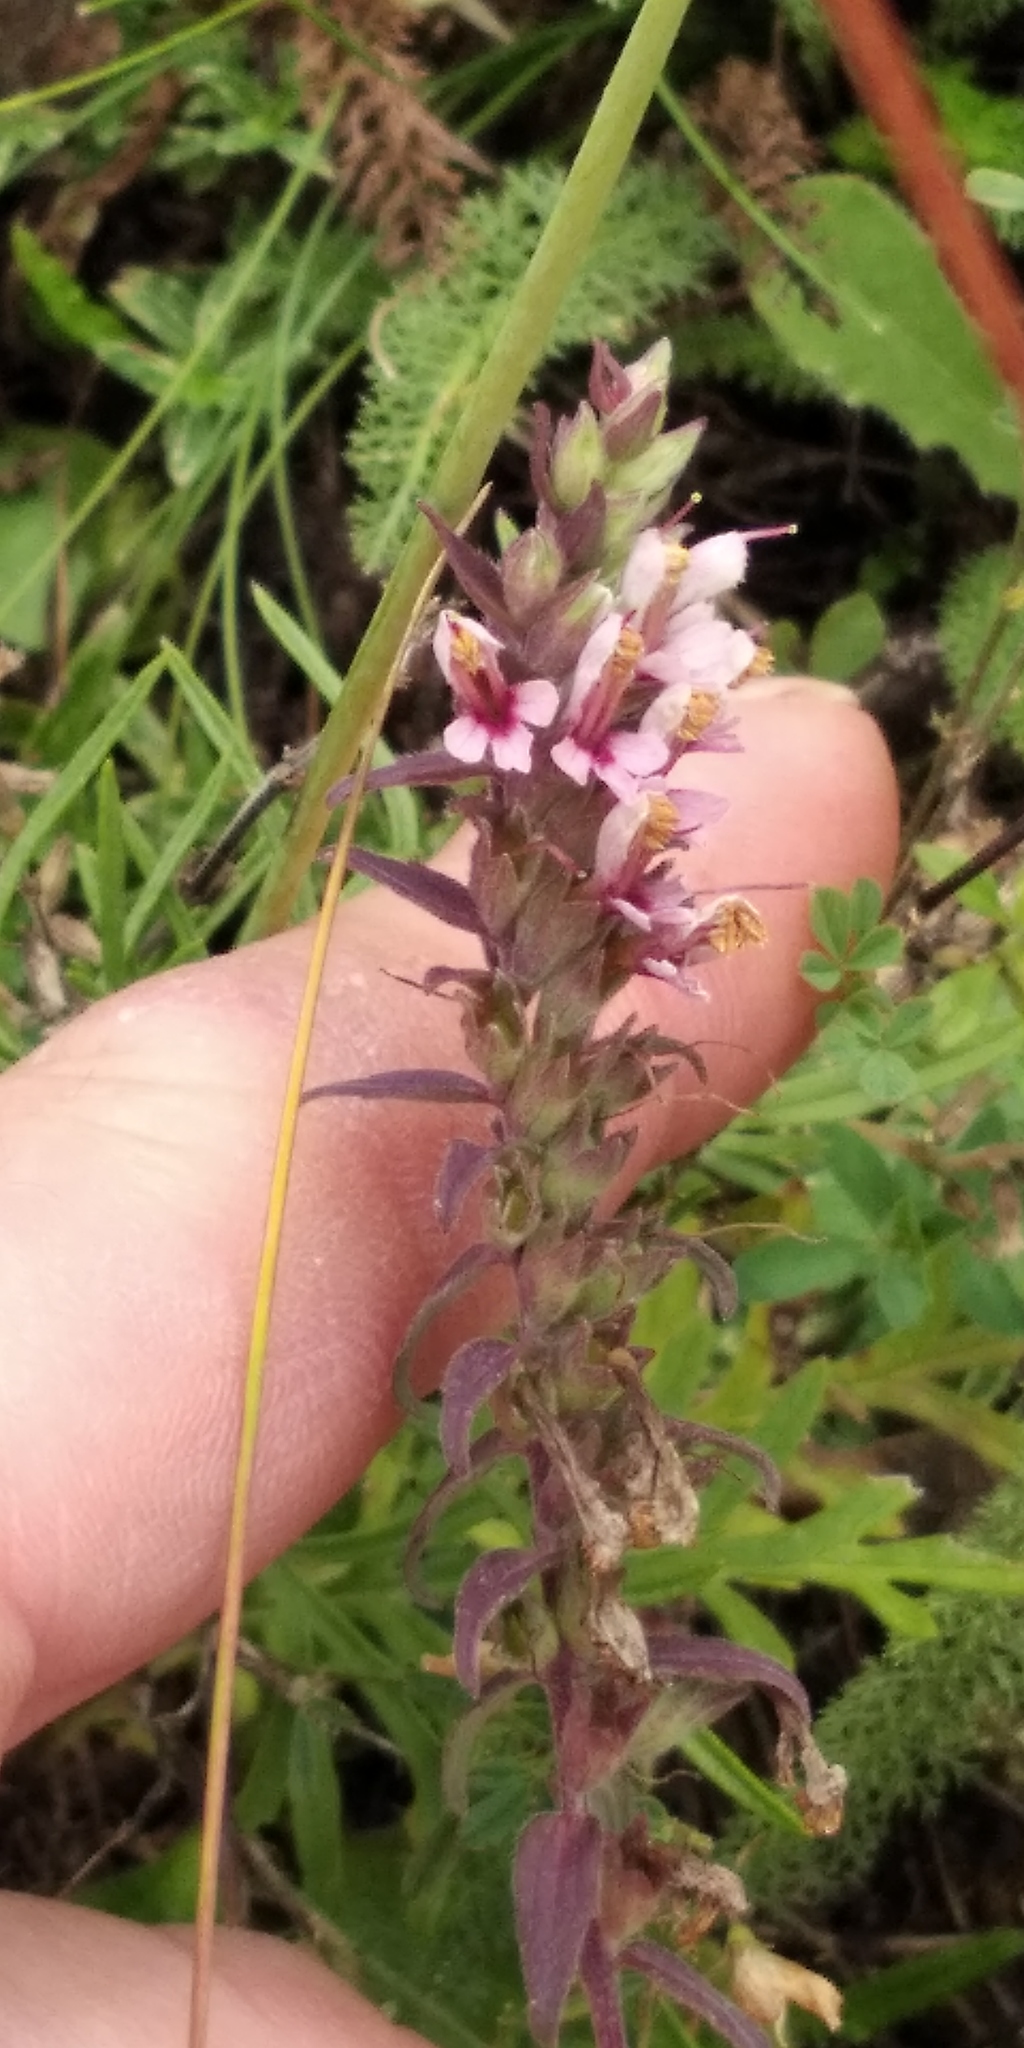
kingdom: Plantae
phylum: Tracheophyta
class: Magnoliopsida
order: Lamiales
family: Orobanchaceae
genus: Odontites
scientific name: Odontites vulgaris
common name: Broomrape
